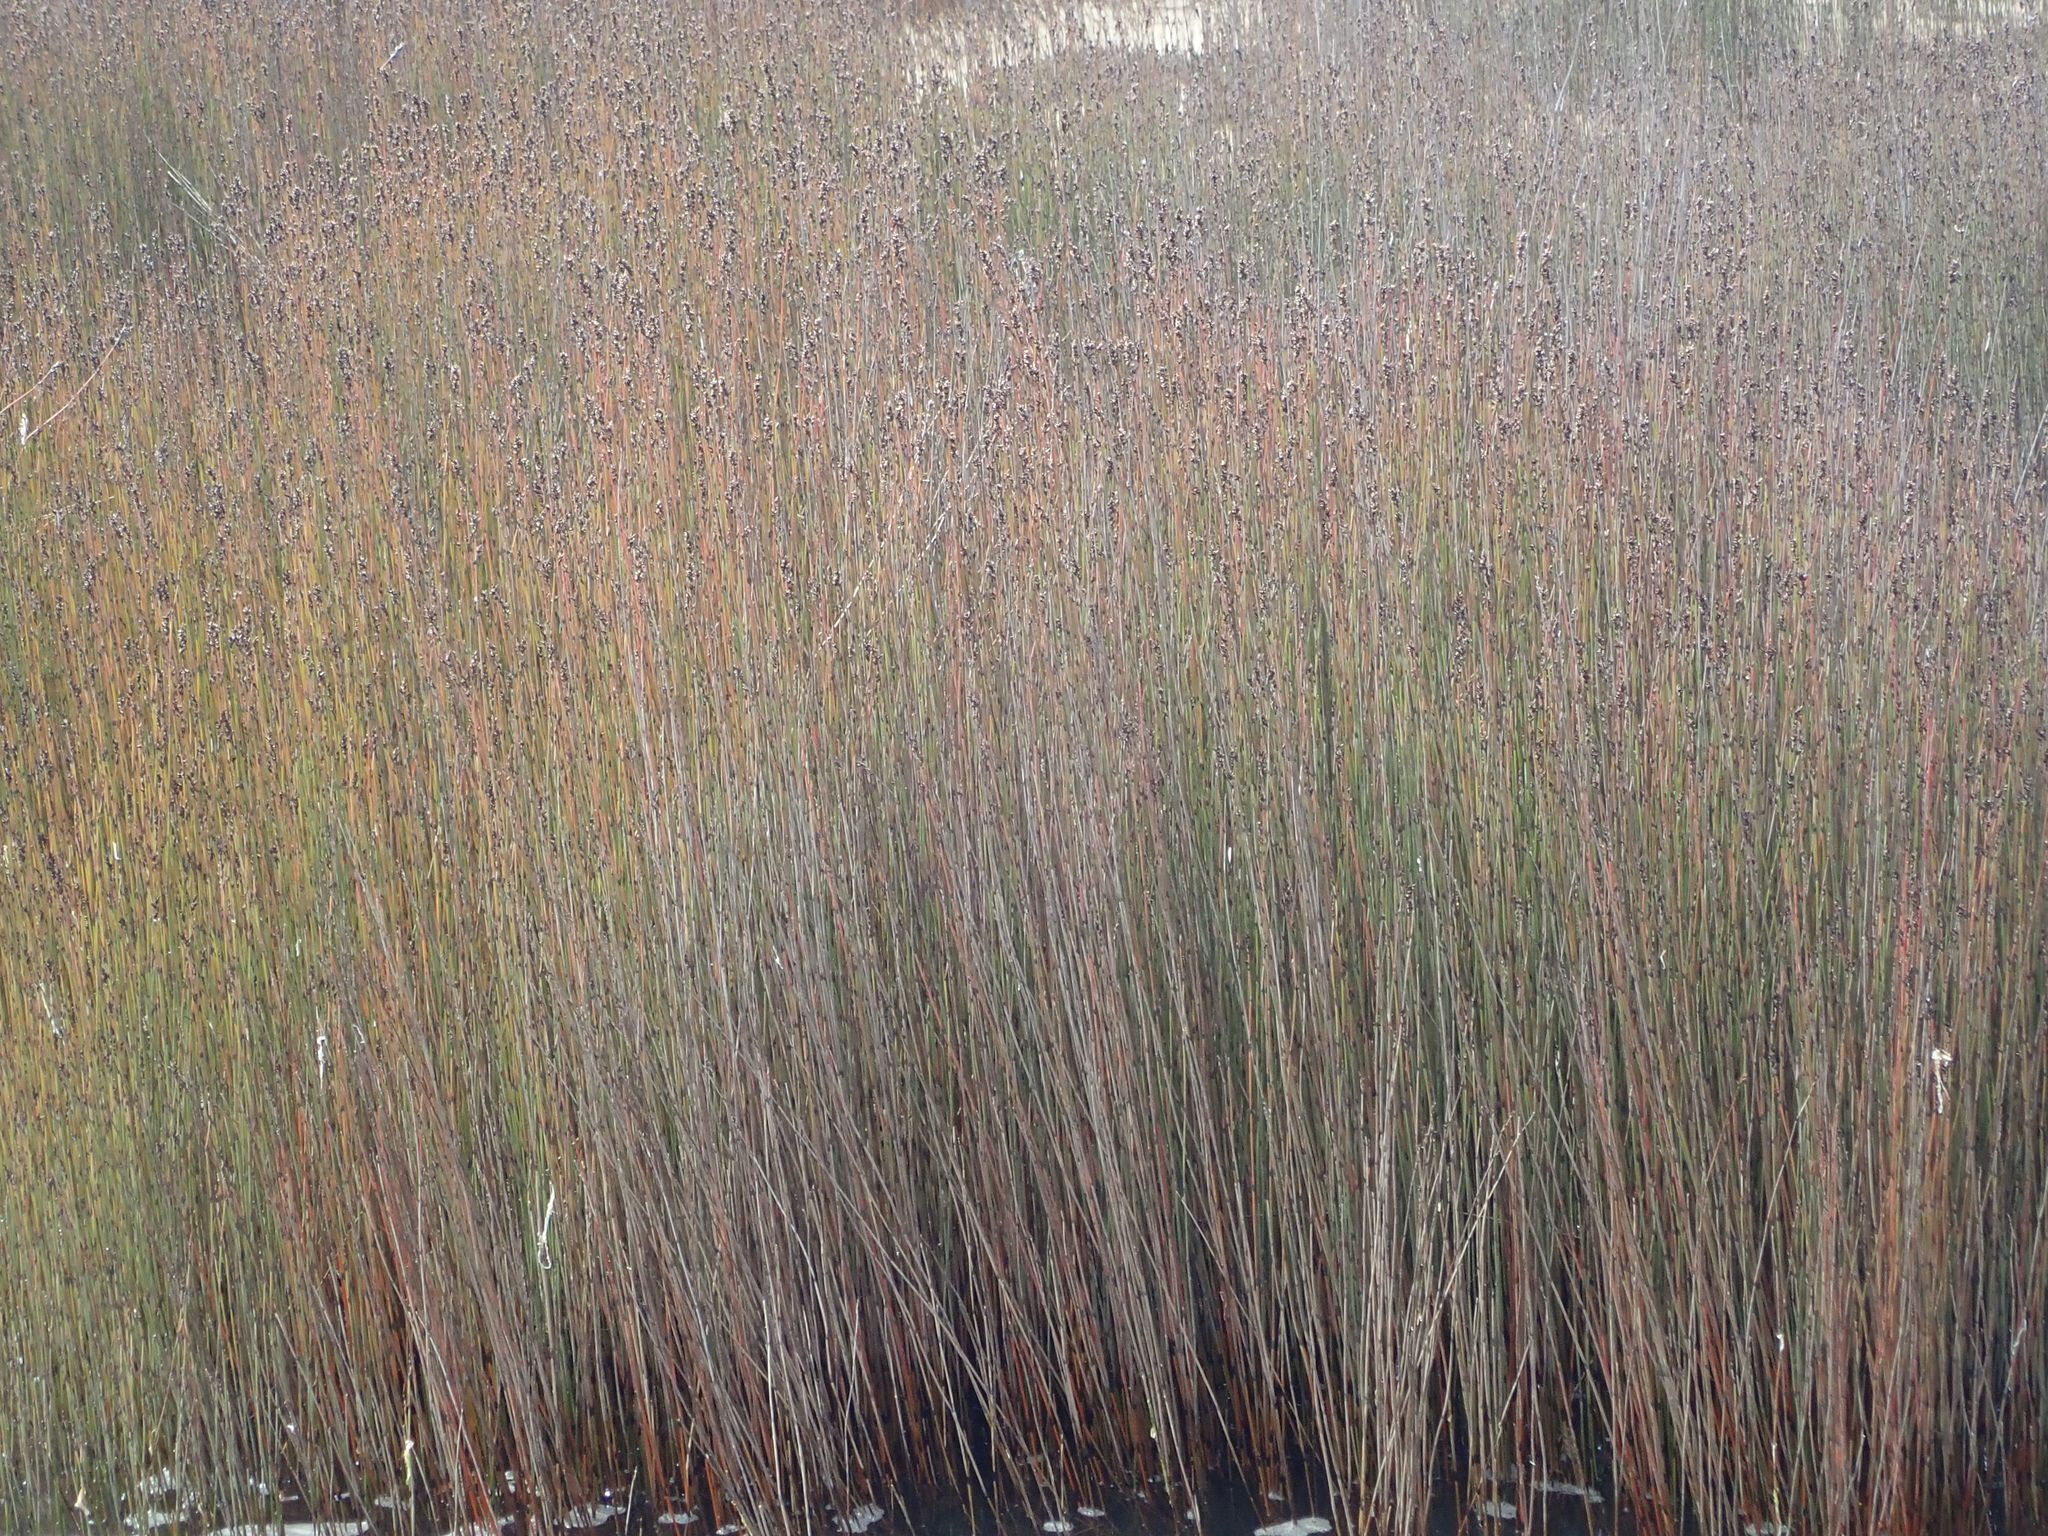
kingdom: Plantae
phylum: Tracheophyta
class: Liliopsida
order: Poales
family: Restionaceae
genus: Apodasmia
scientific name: Apodasmia similis
